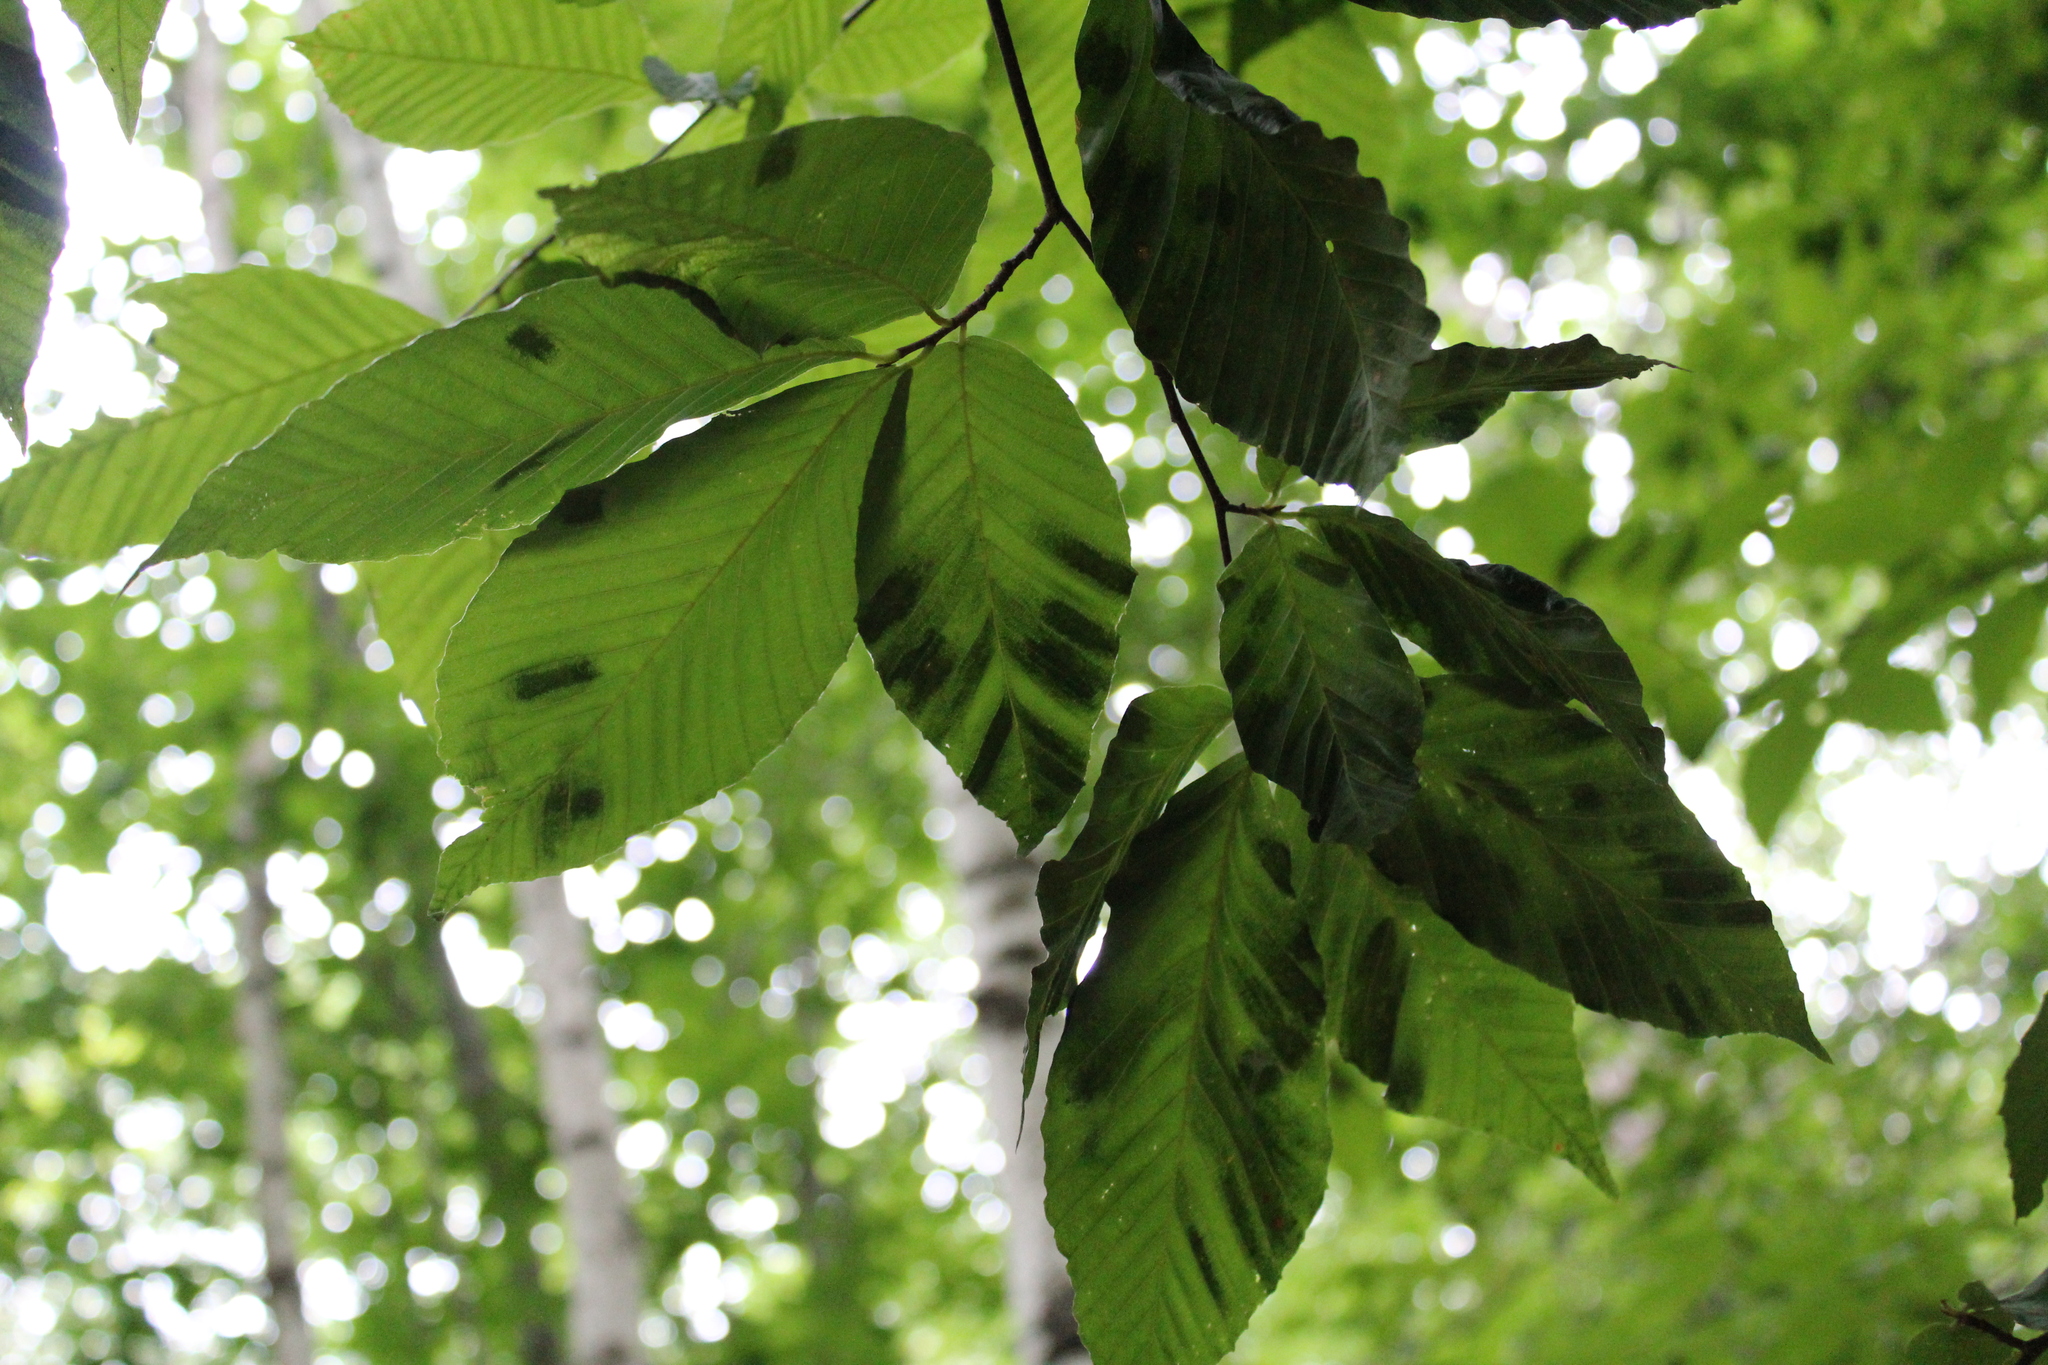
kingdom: Plantae
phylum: Tracheophyta
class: Magnoliopsida
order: Fagales
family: Fagaceae
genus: Fagus
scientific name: Fagus grandifolia
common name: American beech
